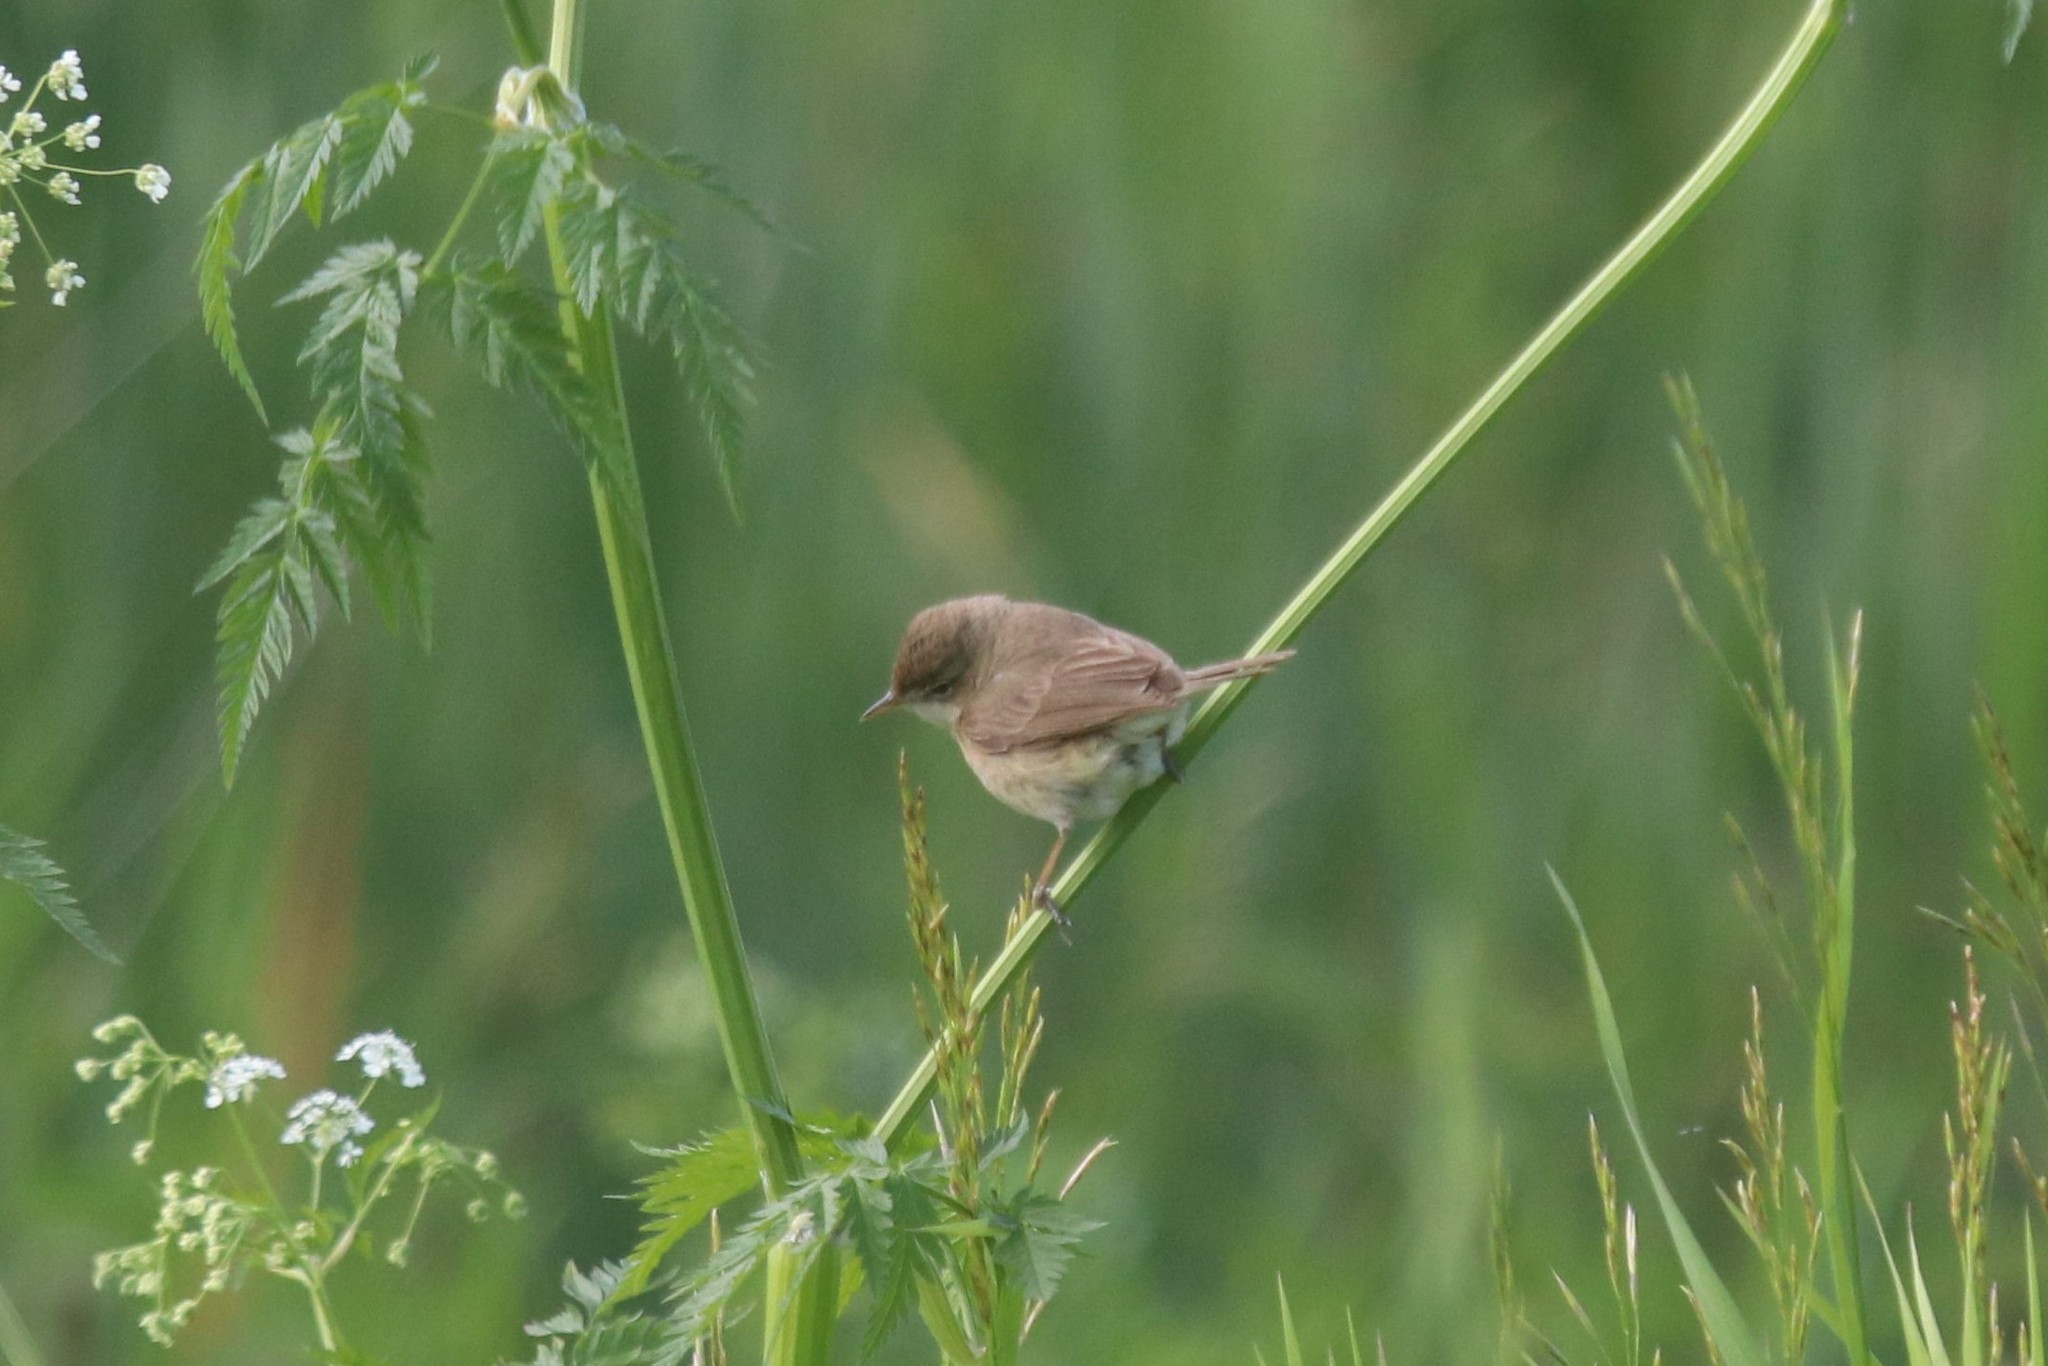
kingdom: Animalia
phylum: Chordata
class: Aves
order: Passeriformes
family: Acrocephalidae
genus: Iduna
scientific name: Iduna caligata
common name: Booted warbler
